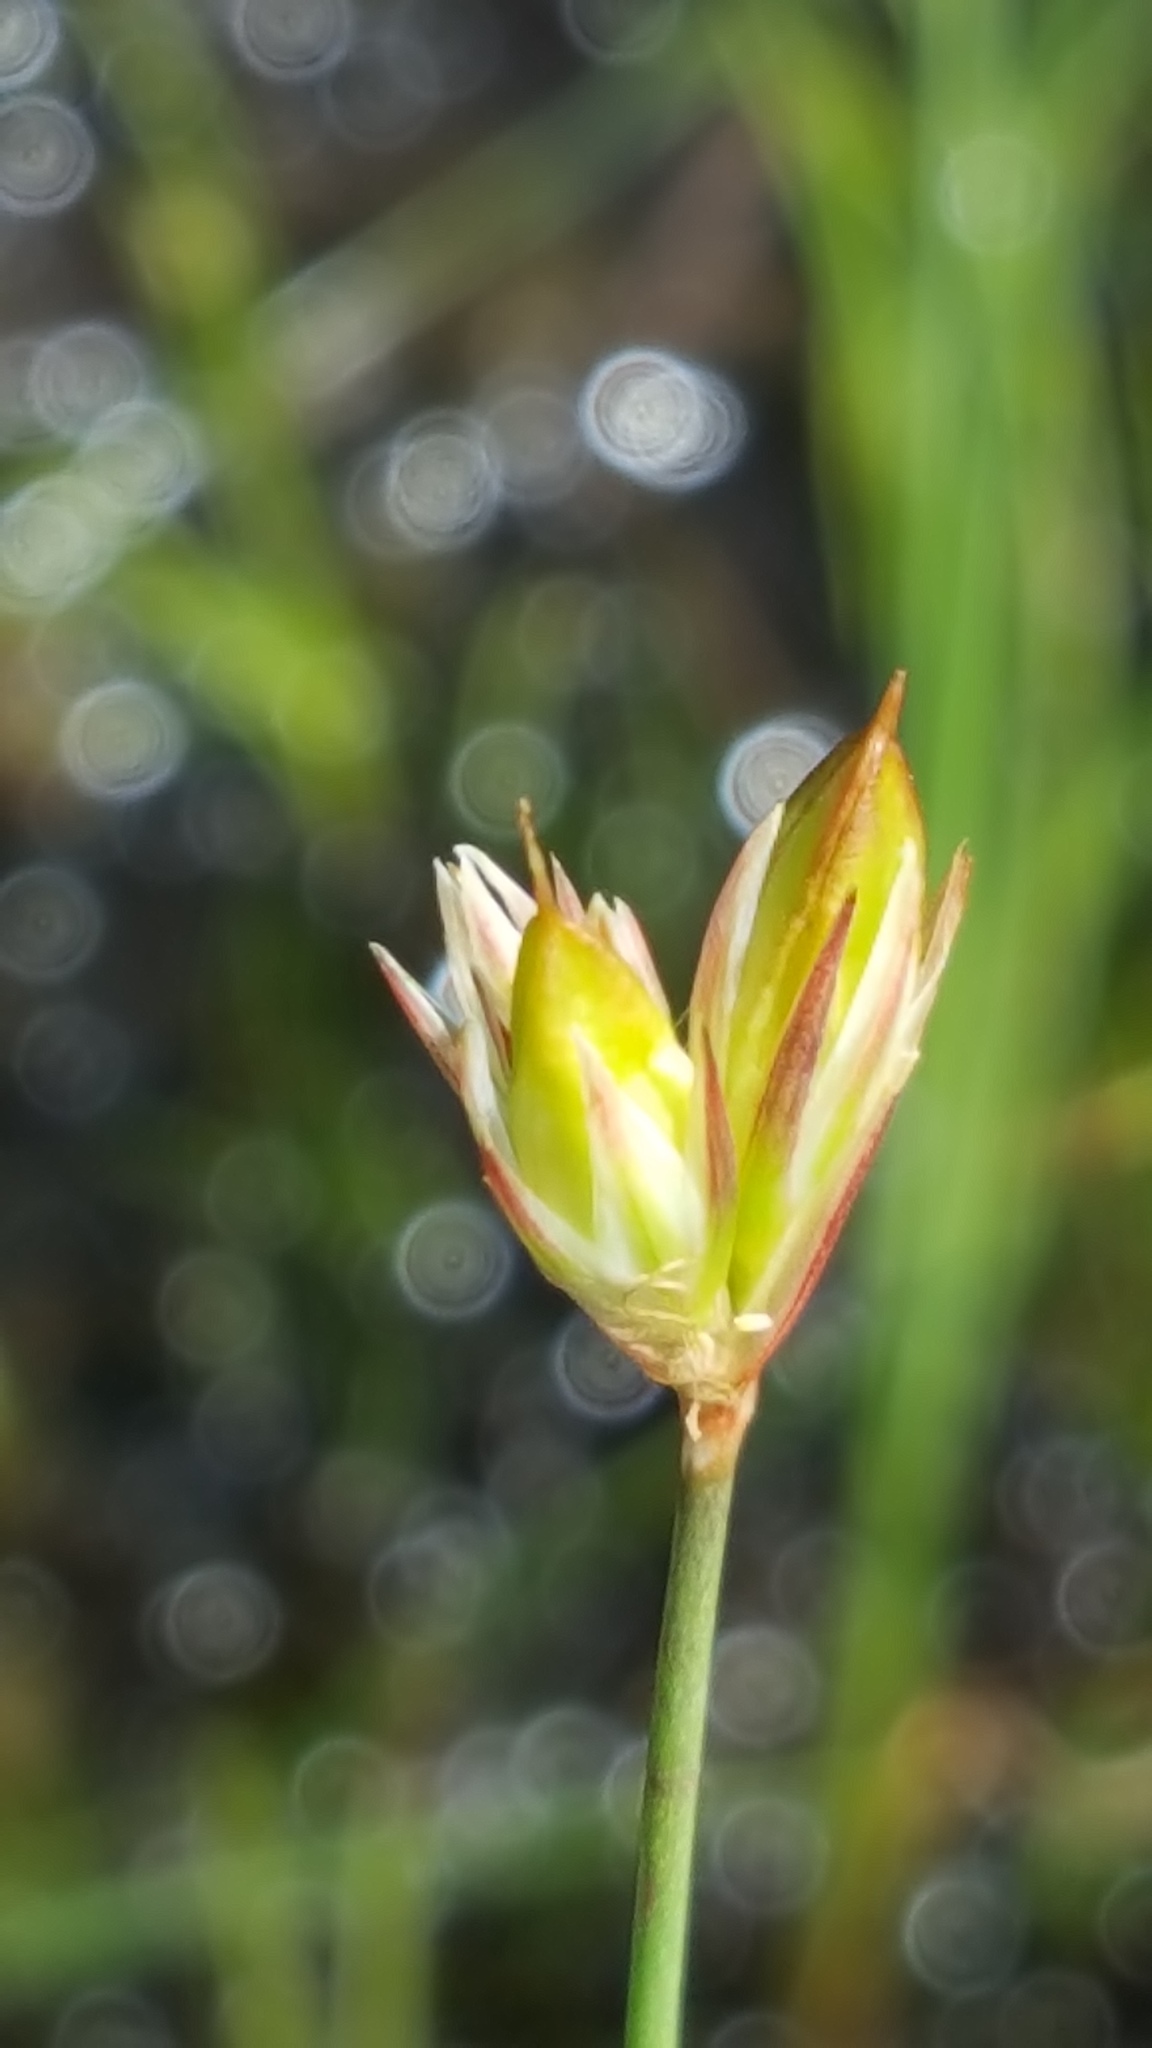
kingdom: Plantae
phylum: Tracheophyta
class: Liliopsida
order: Poales
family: Juncaceae
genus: Juncus
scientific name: Juncus stygius
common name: Bog rush
